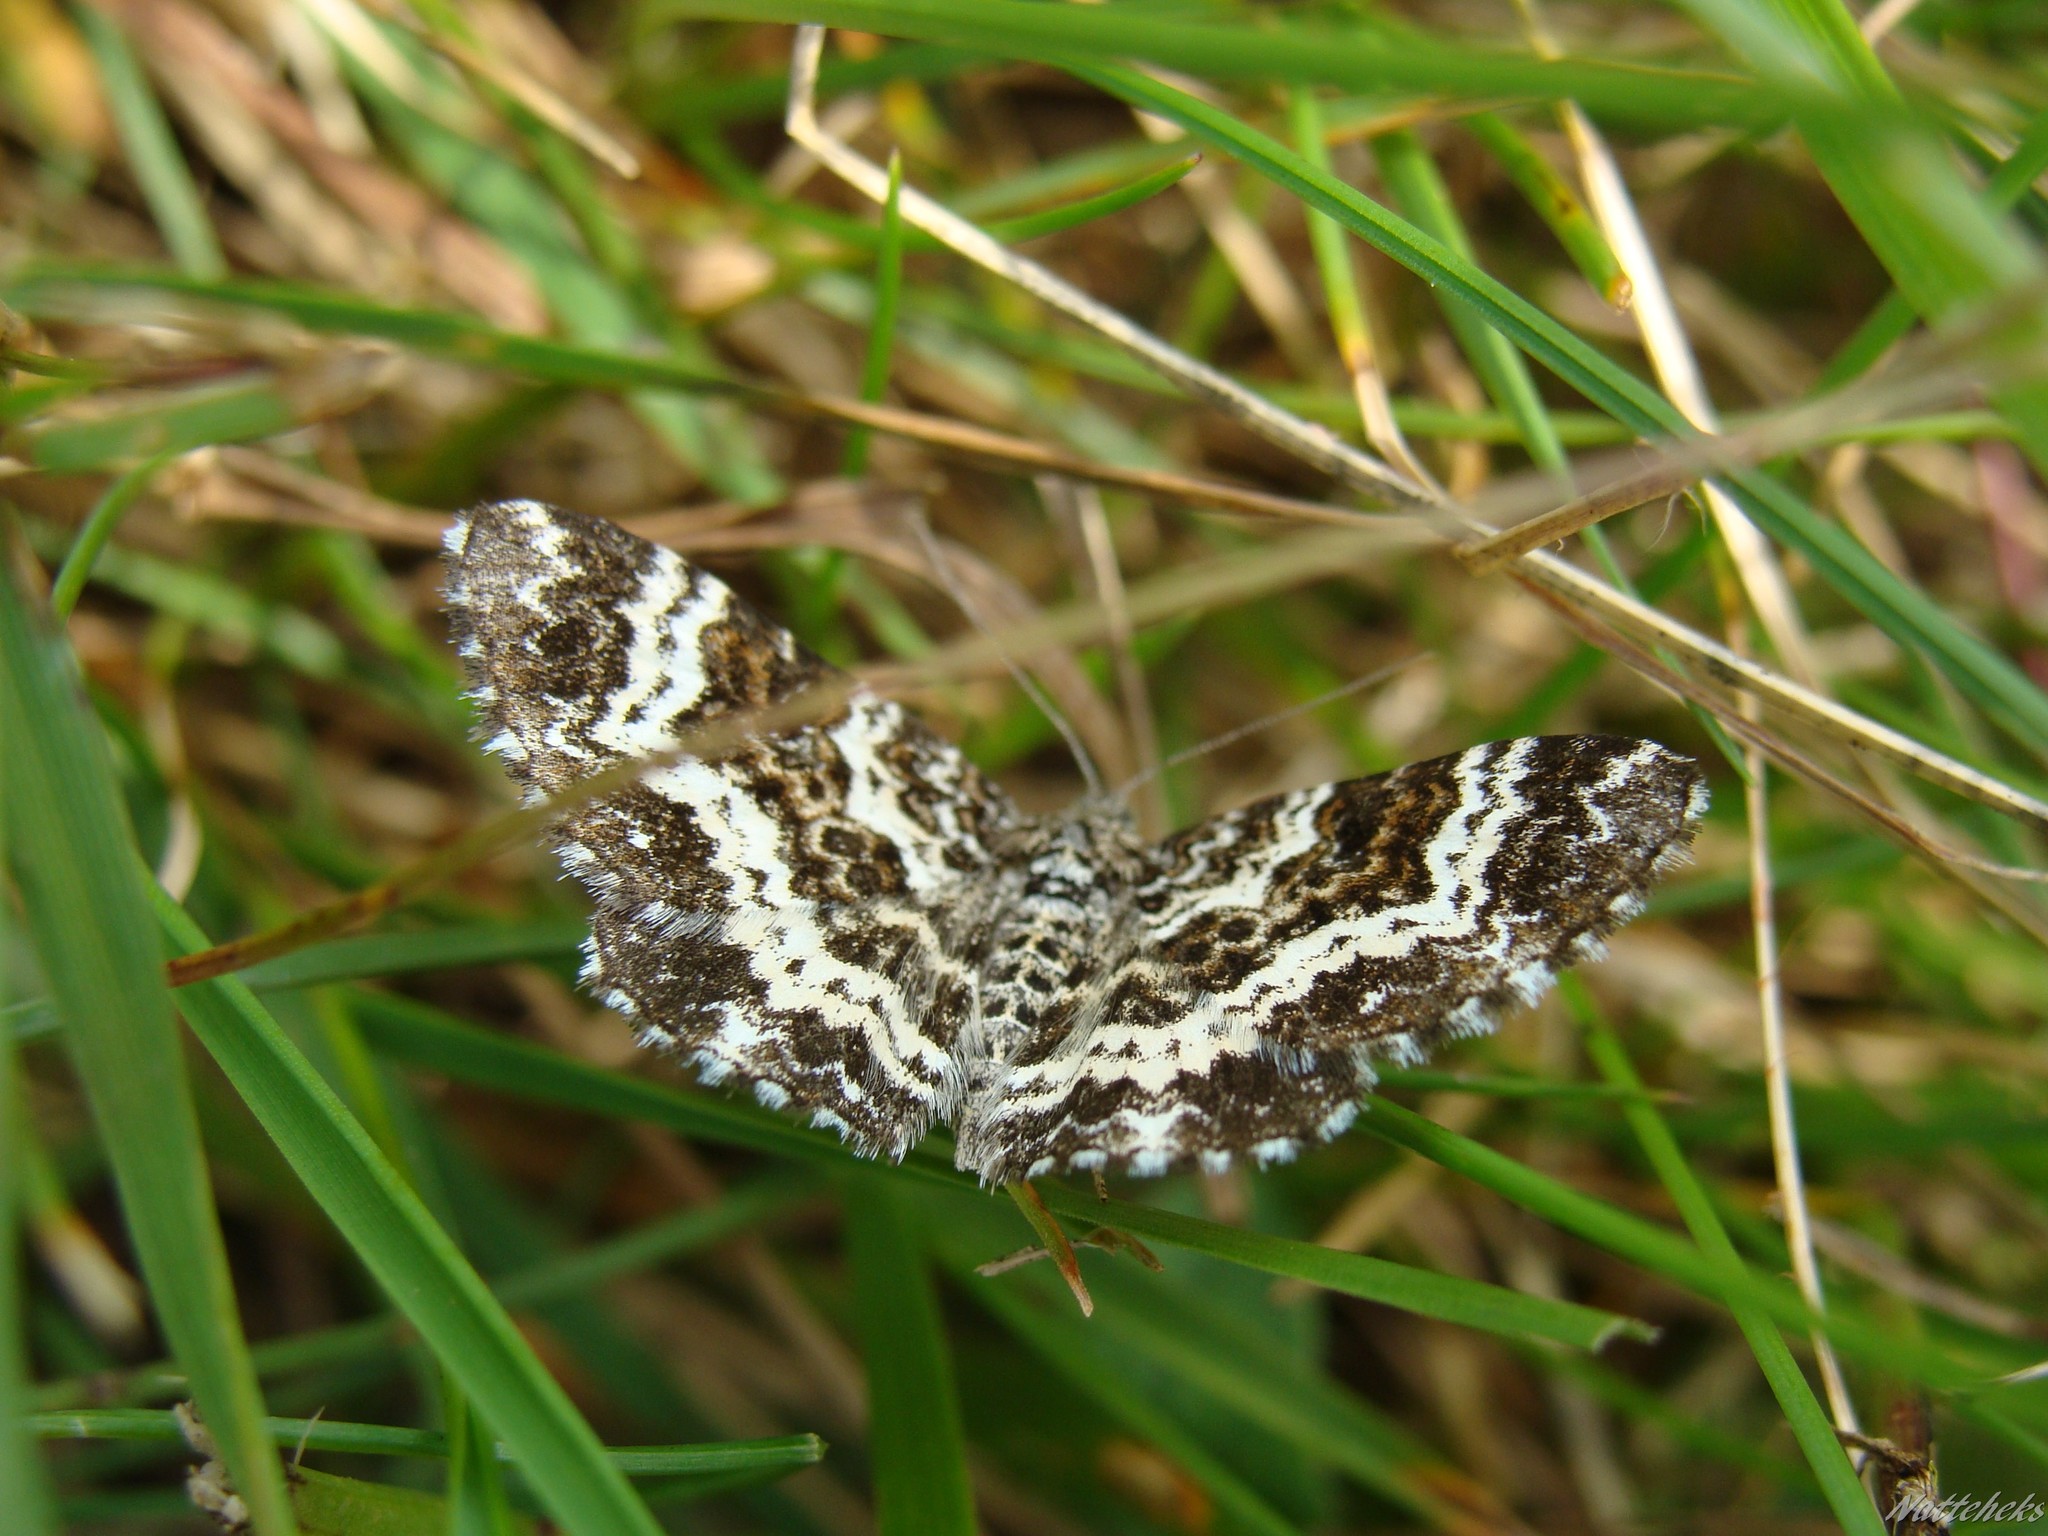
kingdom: Animalia
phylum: Arthropoda
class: Insecta
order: Lepidoptera
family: Geometridae
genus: Epirrhoe
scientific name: Epirrhoe tristata
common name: Small argent & sable
